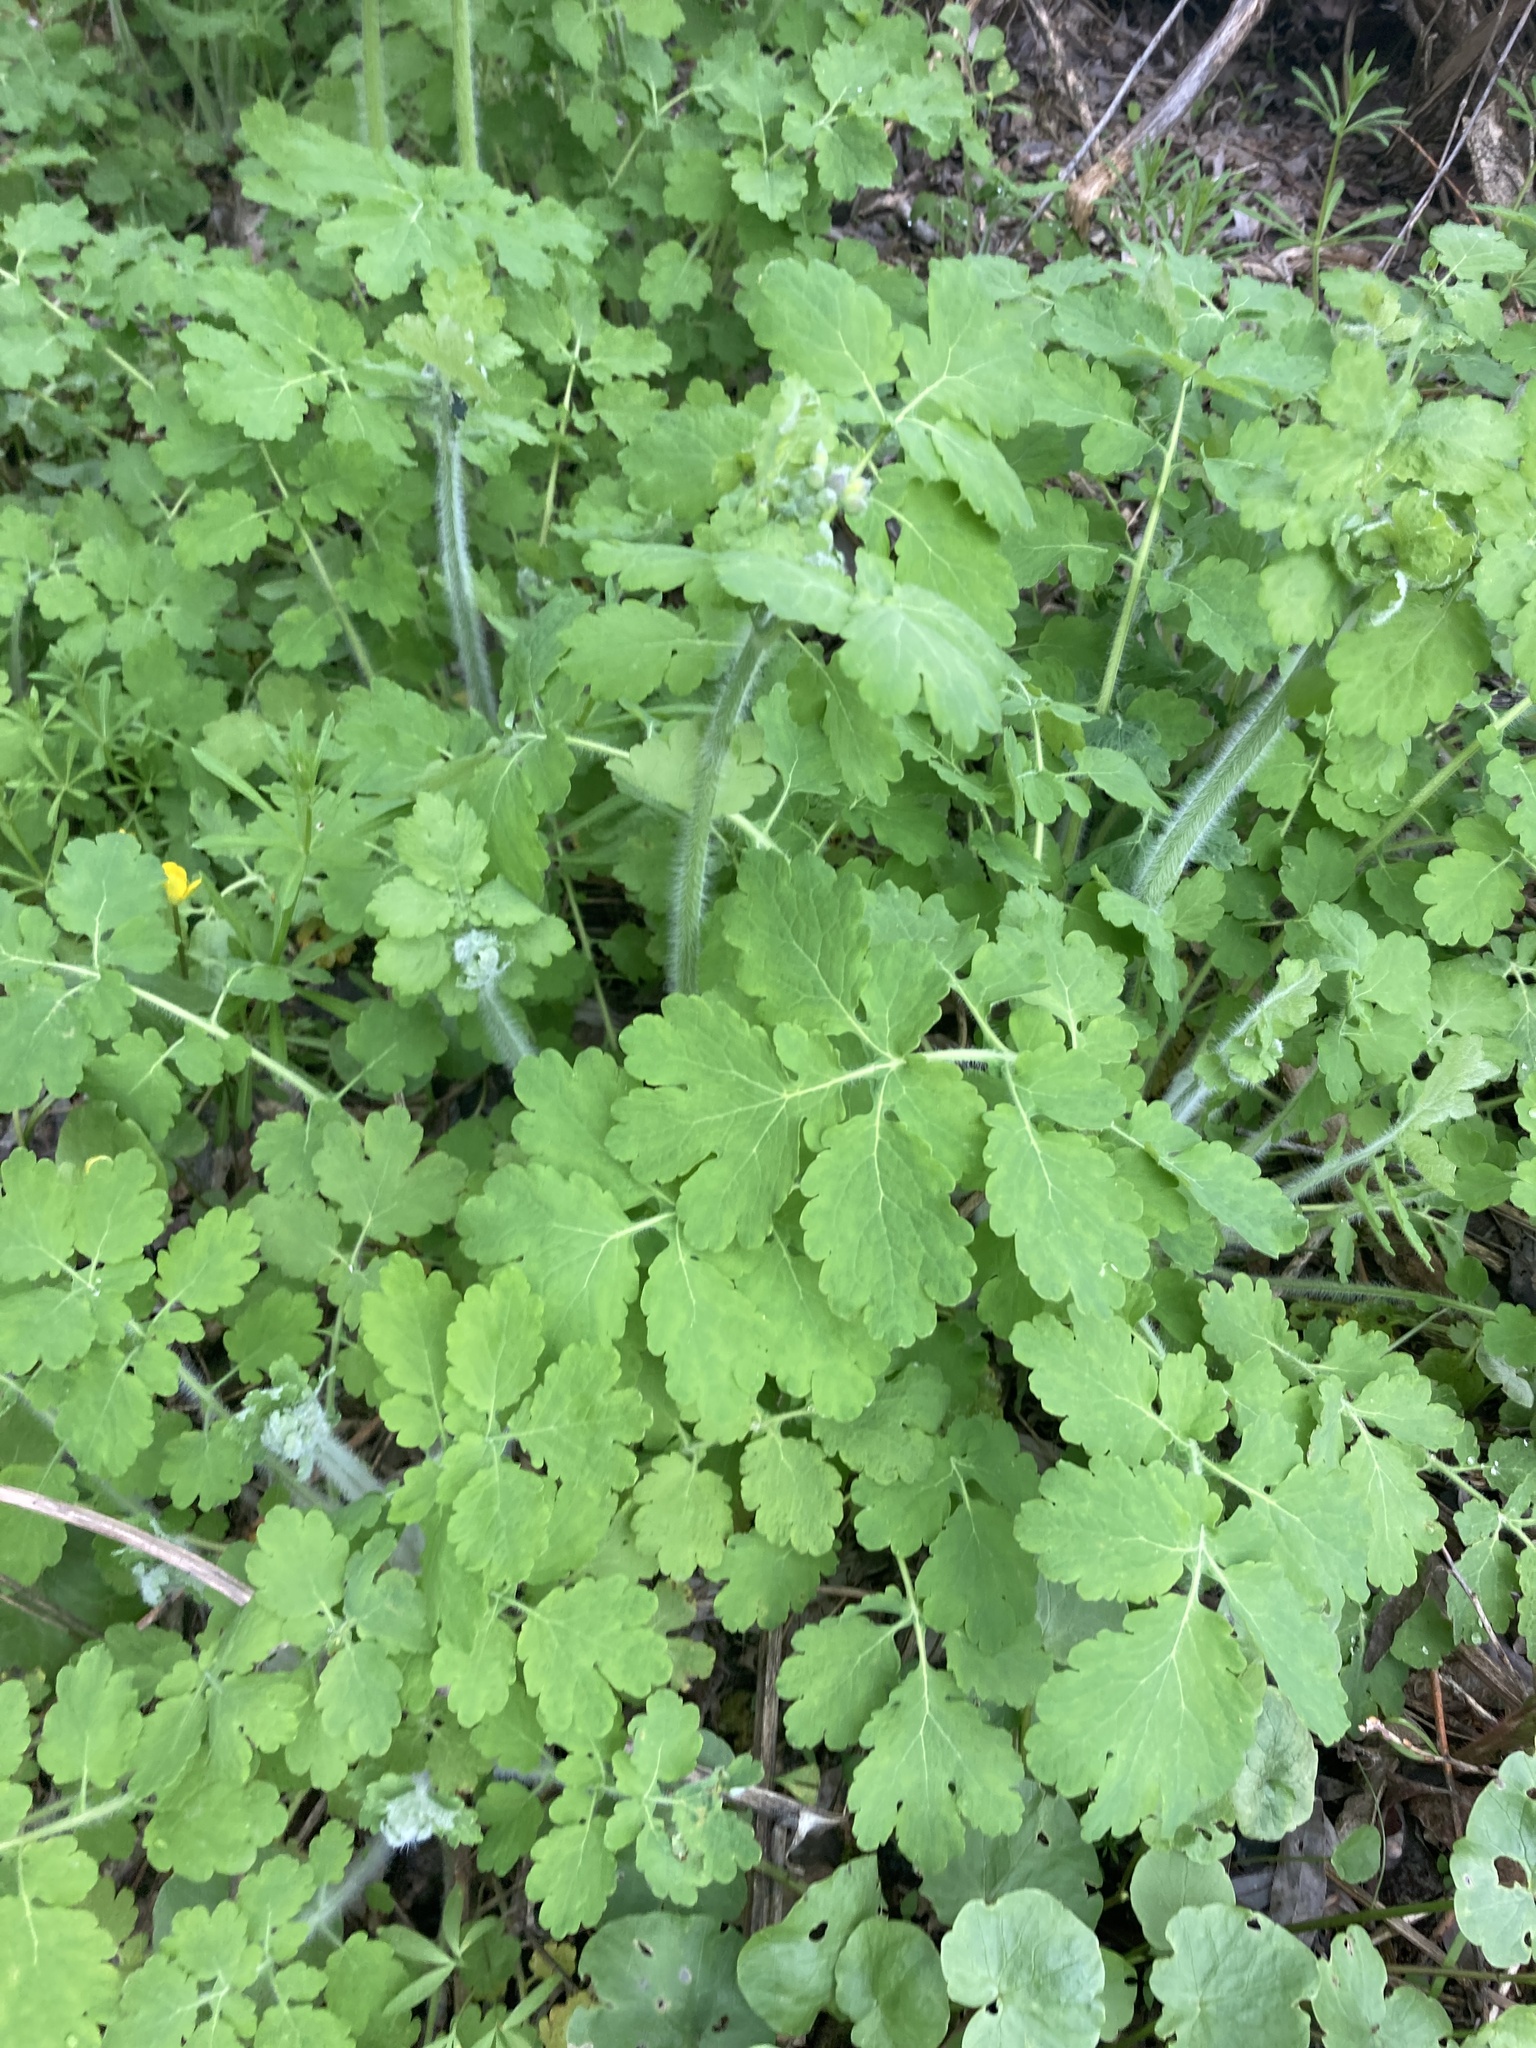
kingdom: Plantae
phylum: Tracheophyta
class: Magnoliopsida
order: Ranunculales
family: Papaveraceae
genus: Chelidonium
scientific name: Chelidonium majus
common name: Greater celandine
